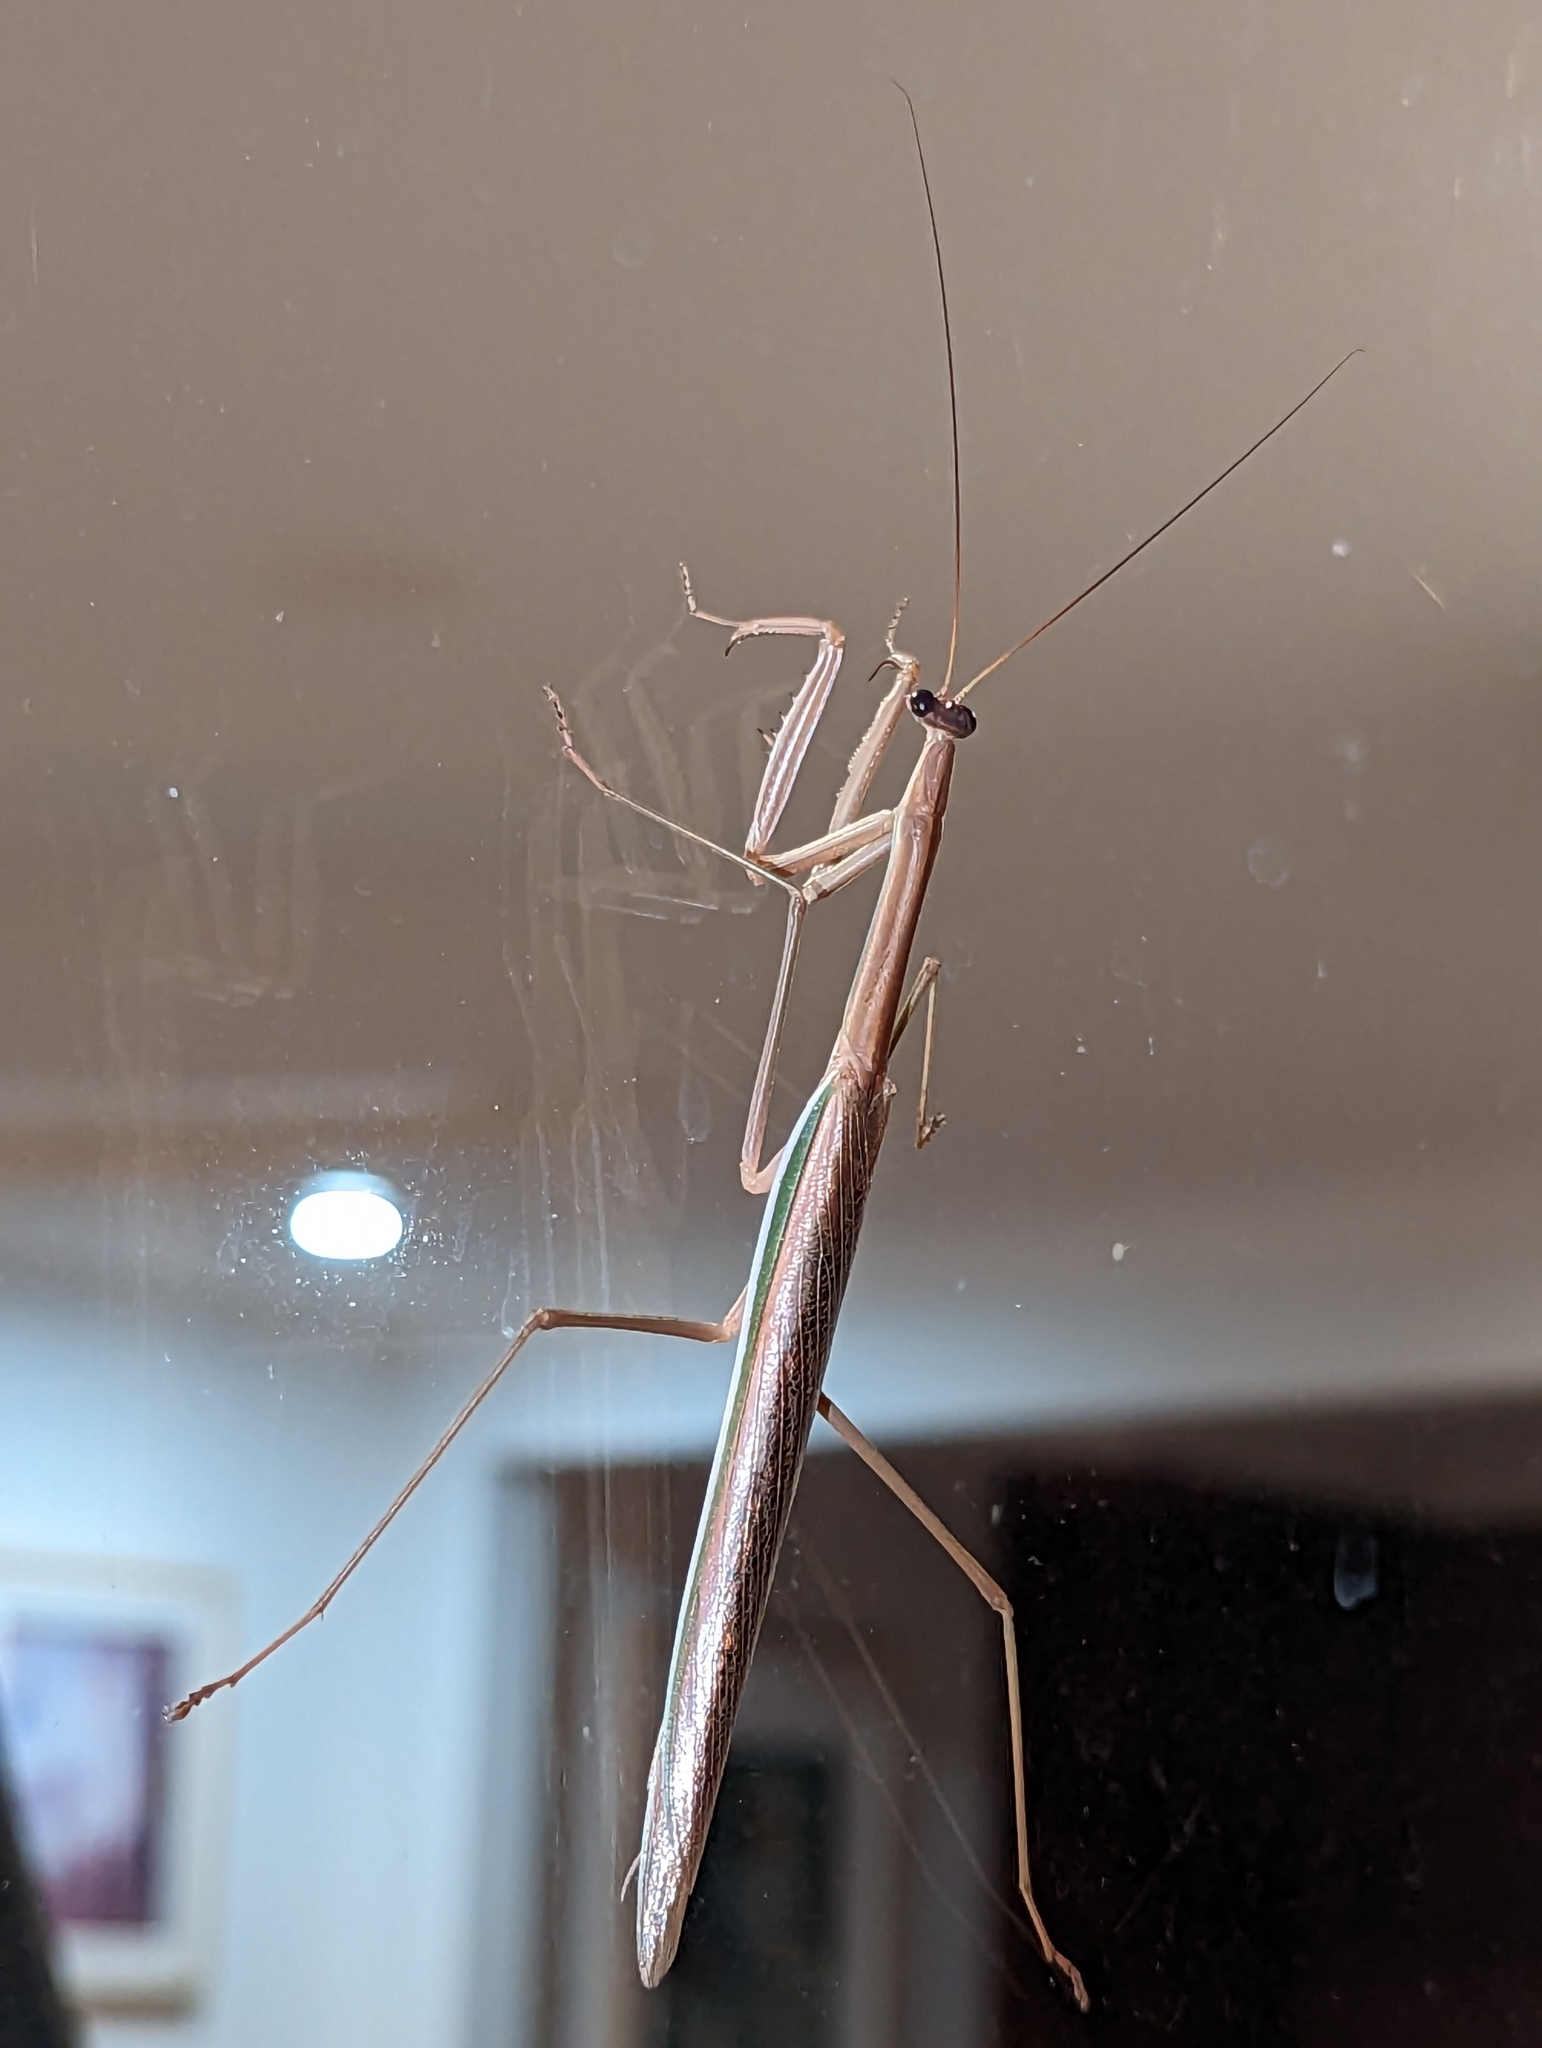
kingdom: Animalia
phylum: Arthropoda
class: Insecta
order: Mantodea
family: Mantidae
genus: Tenodera
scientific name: Tenodera australasiae
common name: Purple-winged mantis
